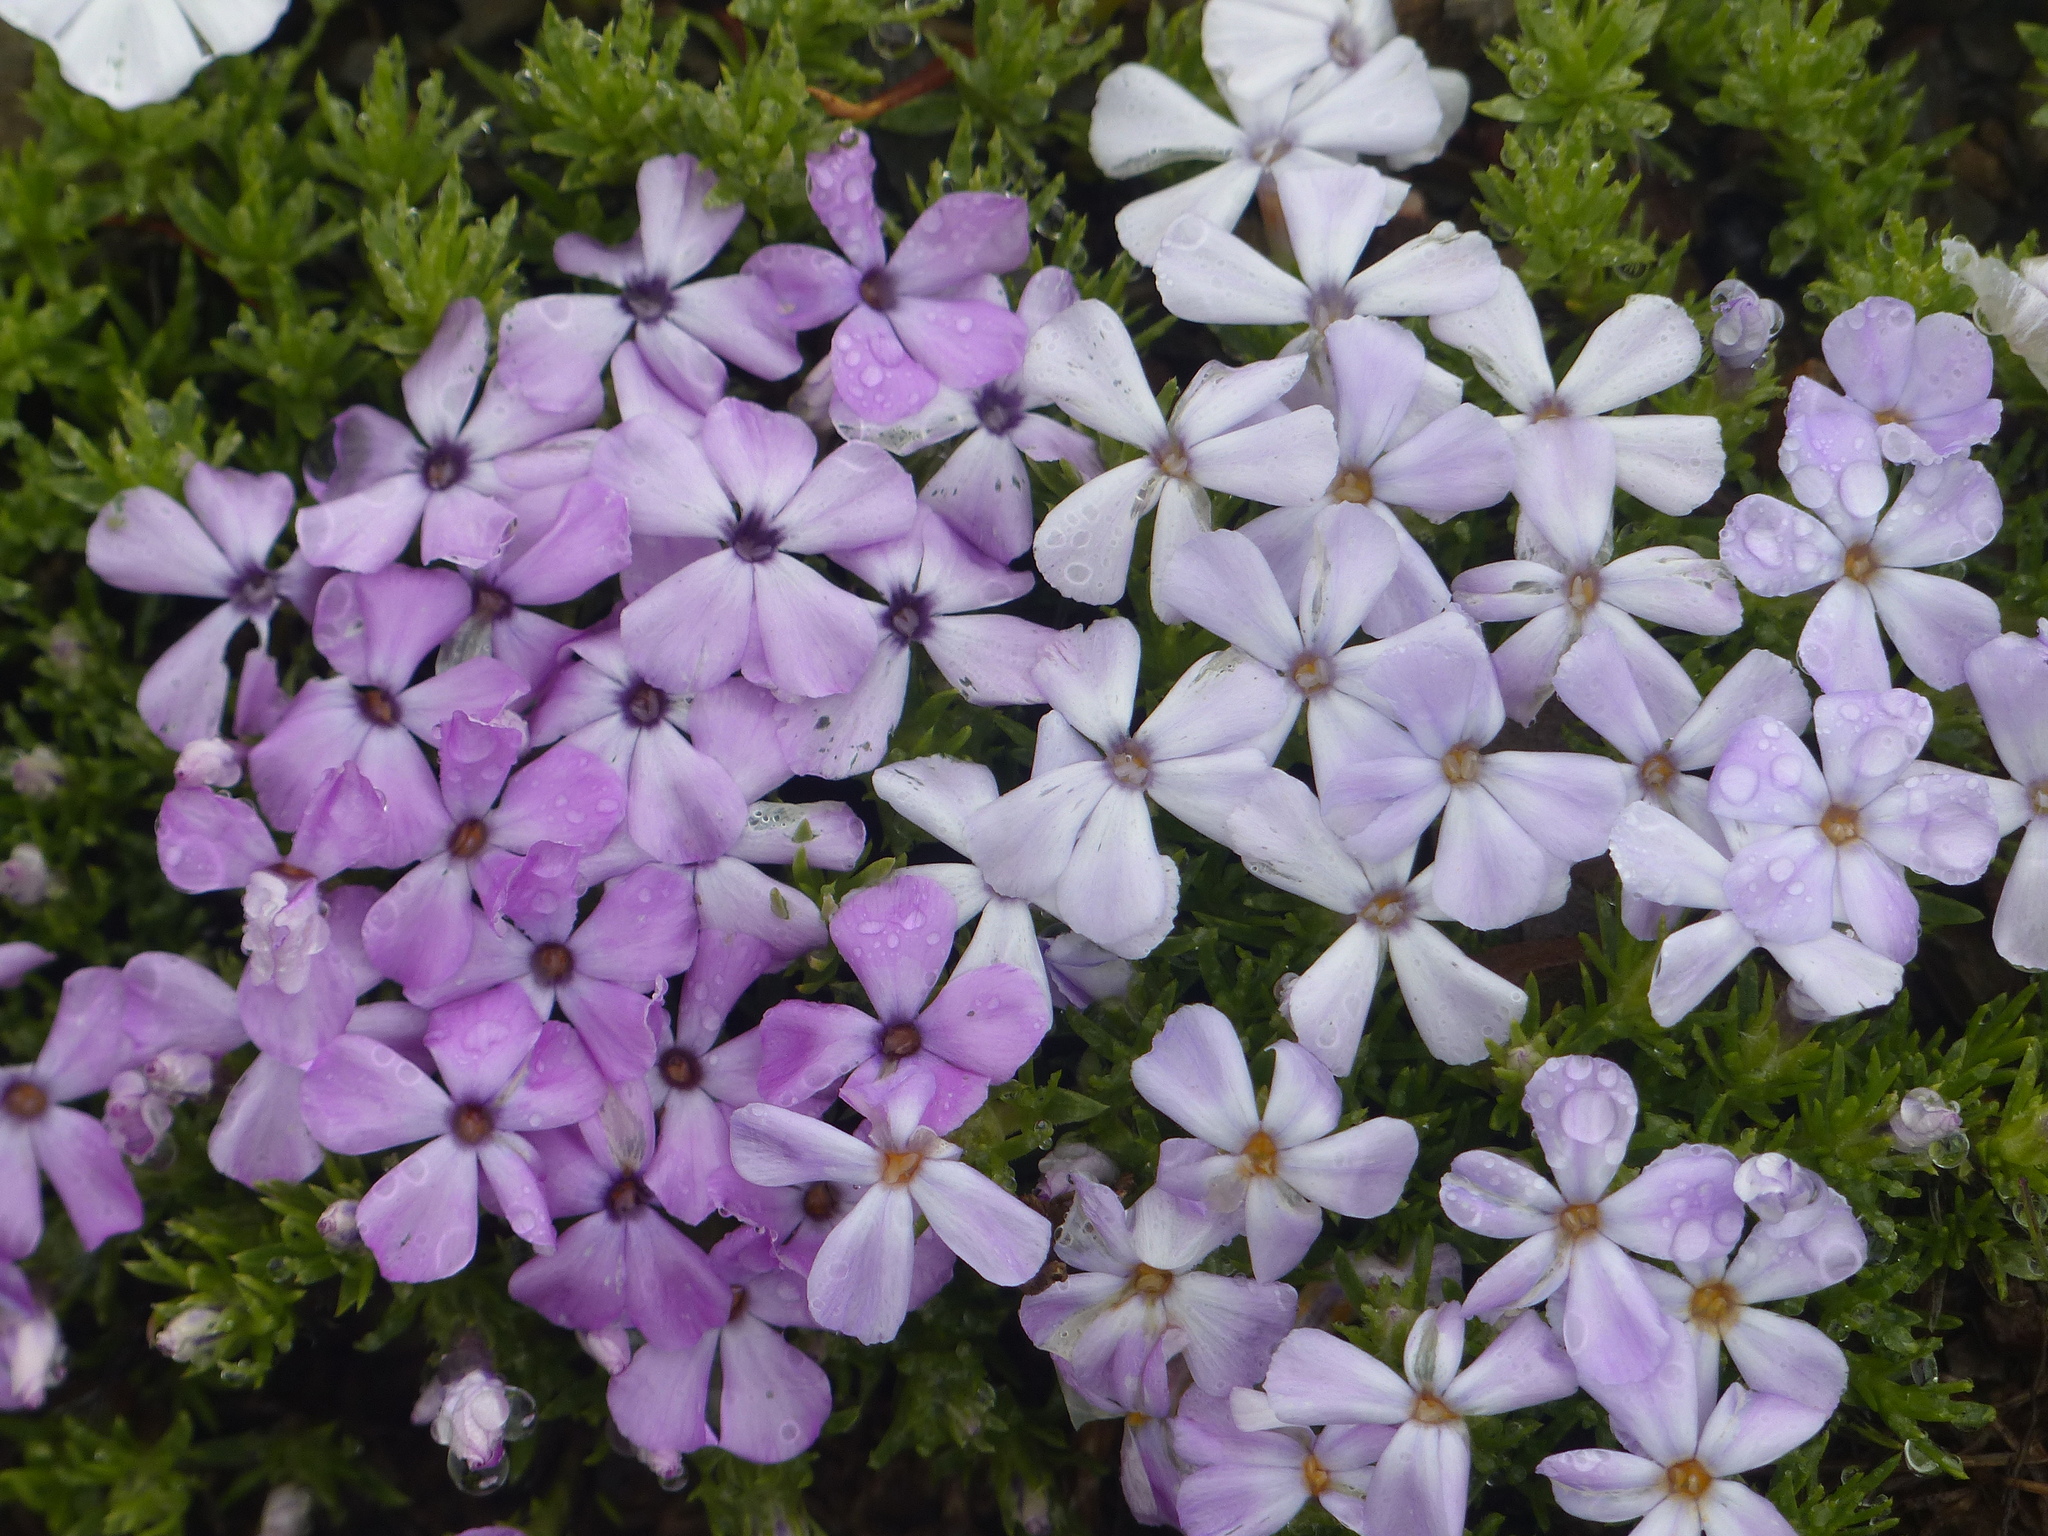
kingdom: Plantae
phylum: Tracheophyta
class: Magnoliopsida
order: Ericales
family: Polemoniaceae
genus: Phlox
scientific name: Phlox diffusa
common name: Mat phlox
